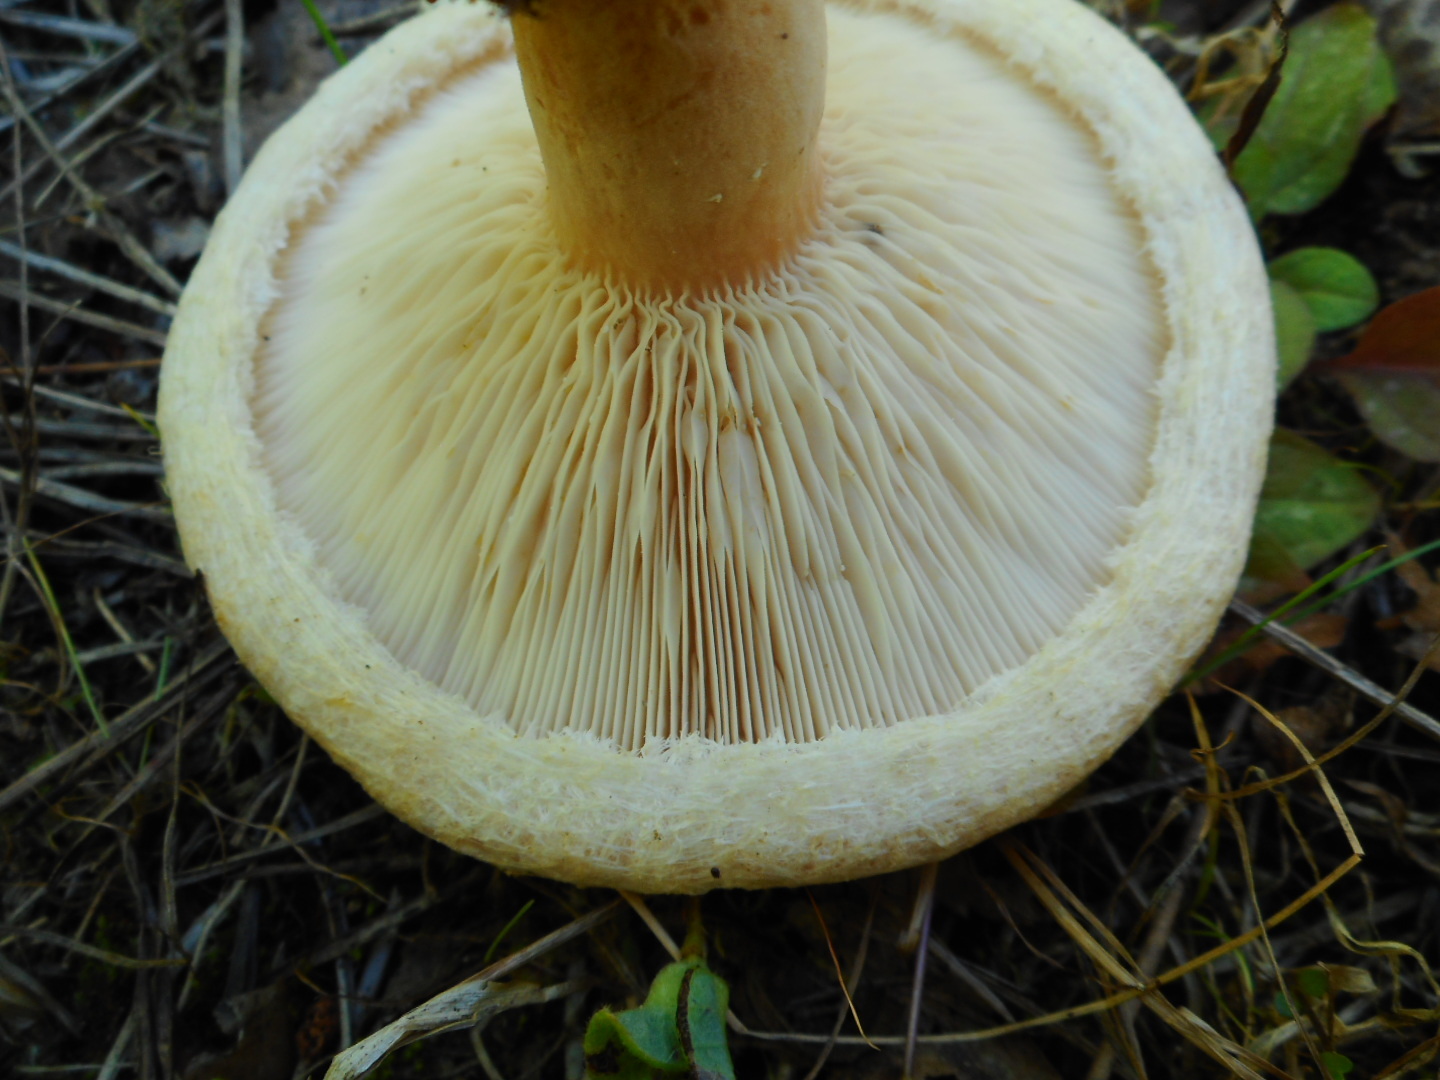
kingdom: Fungi
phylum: Basidiomycota
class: Agaricomycetes
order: Russulales
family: Russulaceae
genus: Lactarius
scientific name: Lactarius pubescens
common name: Bearded milkcap
